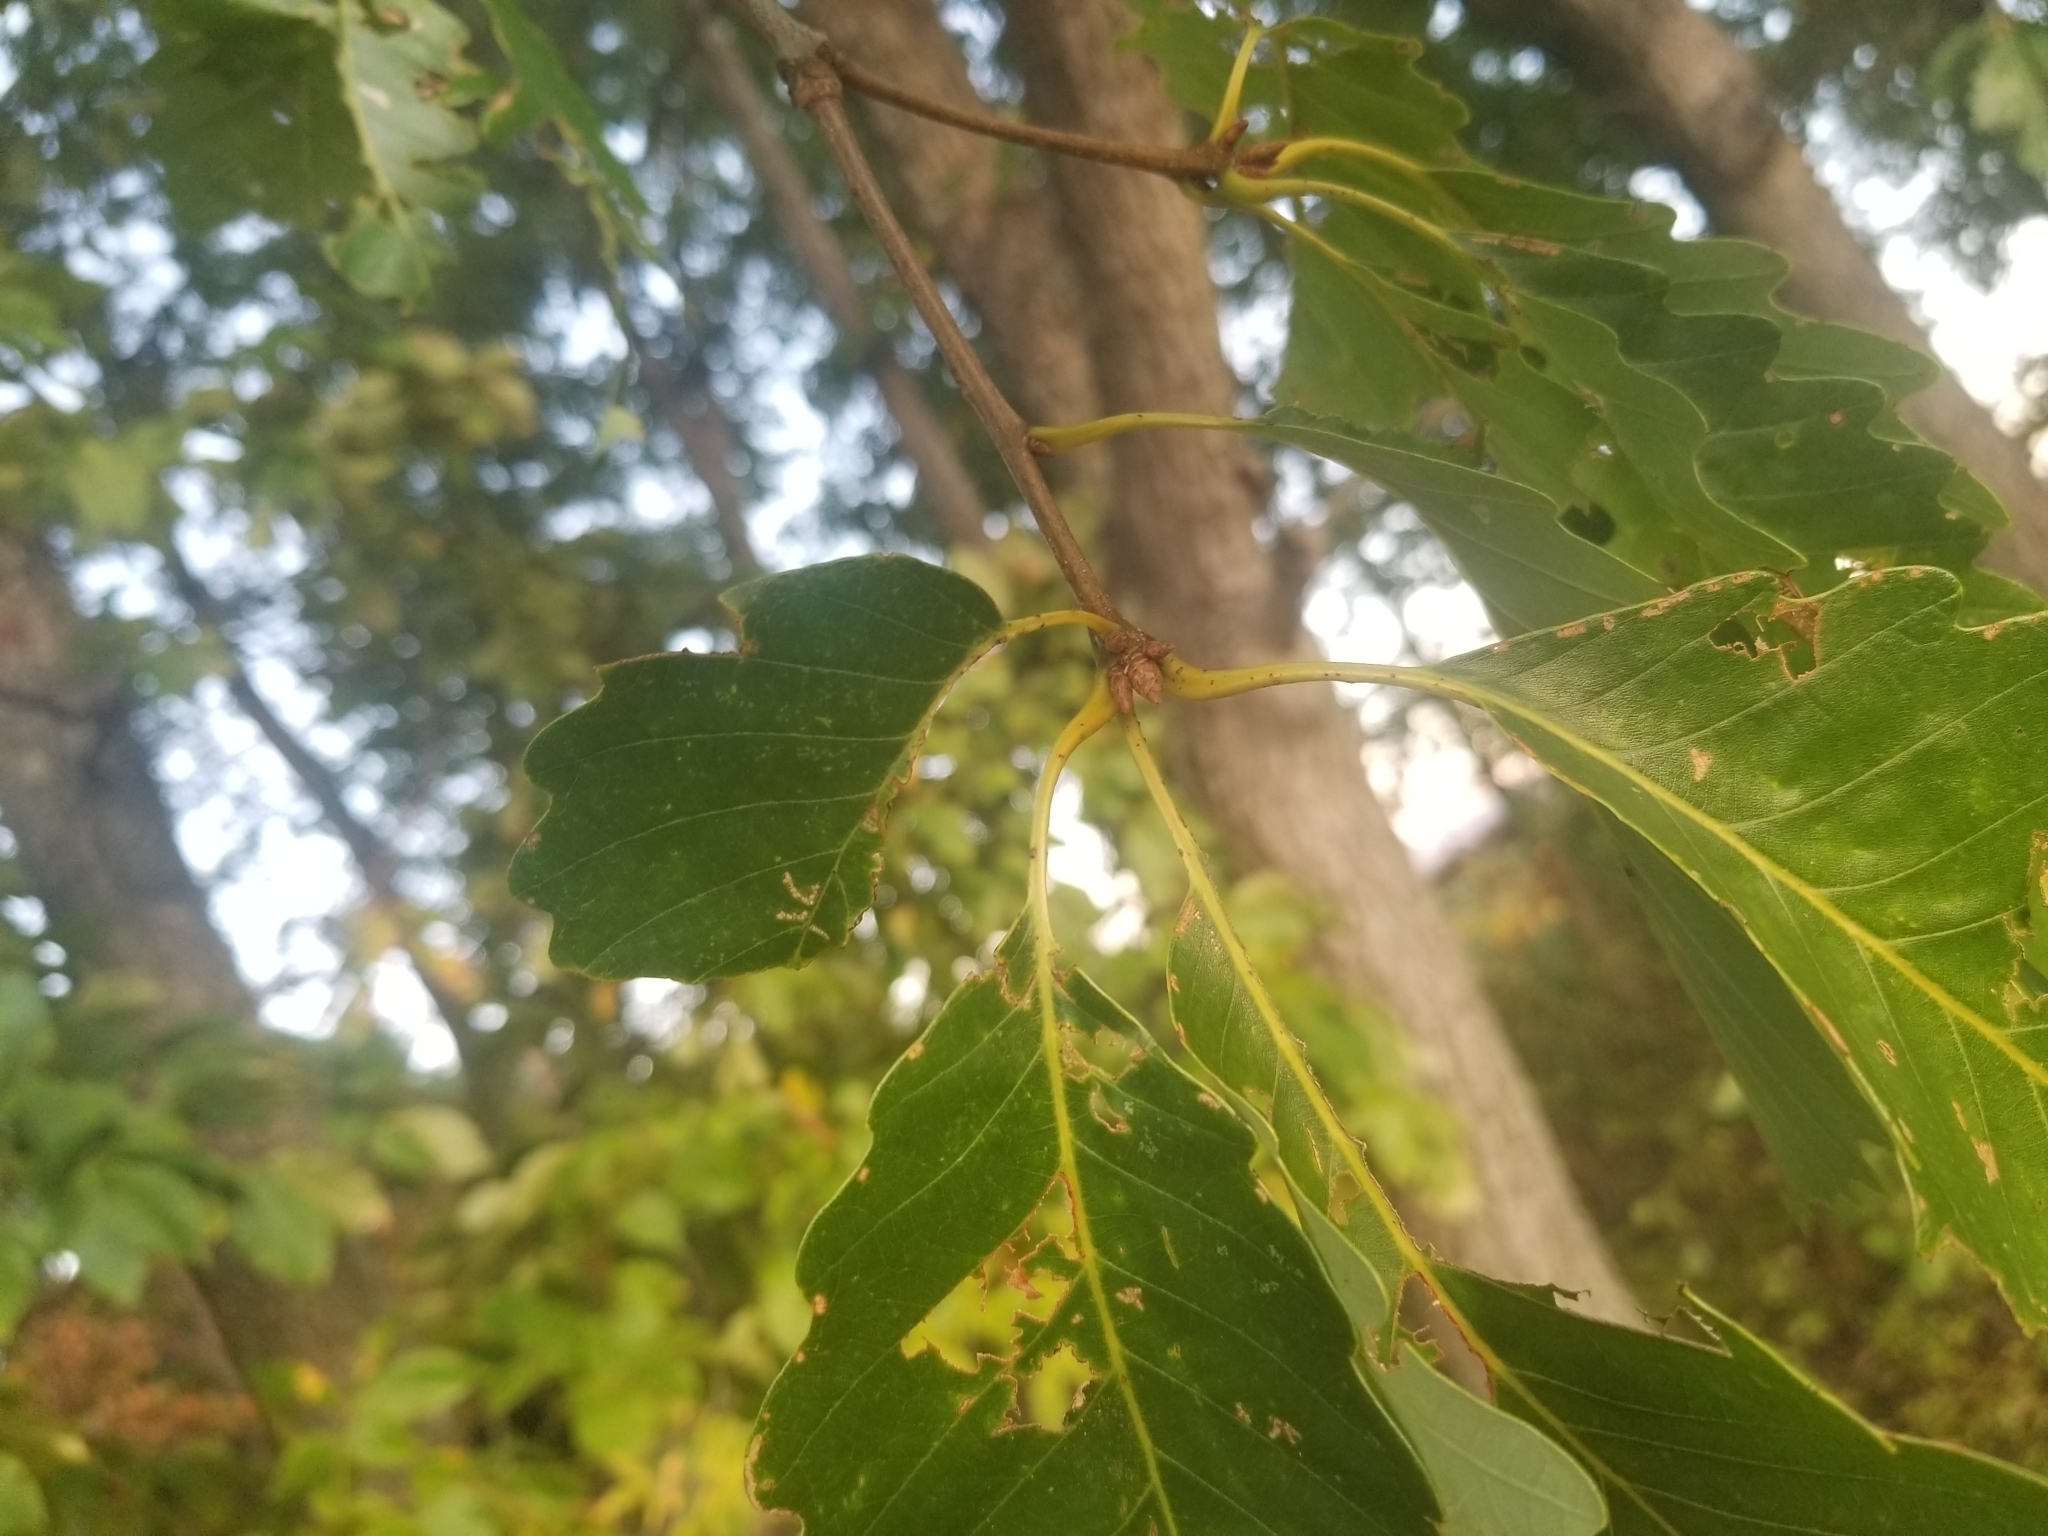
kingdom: Plantae
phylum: Tracheophyta
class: Magnoliopsida
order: Fagales
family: Fagaceae
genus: Quercus
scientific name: Quercus montana
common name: Chestnut oak
